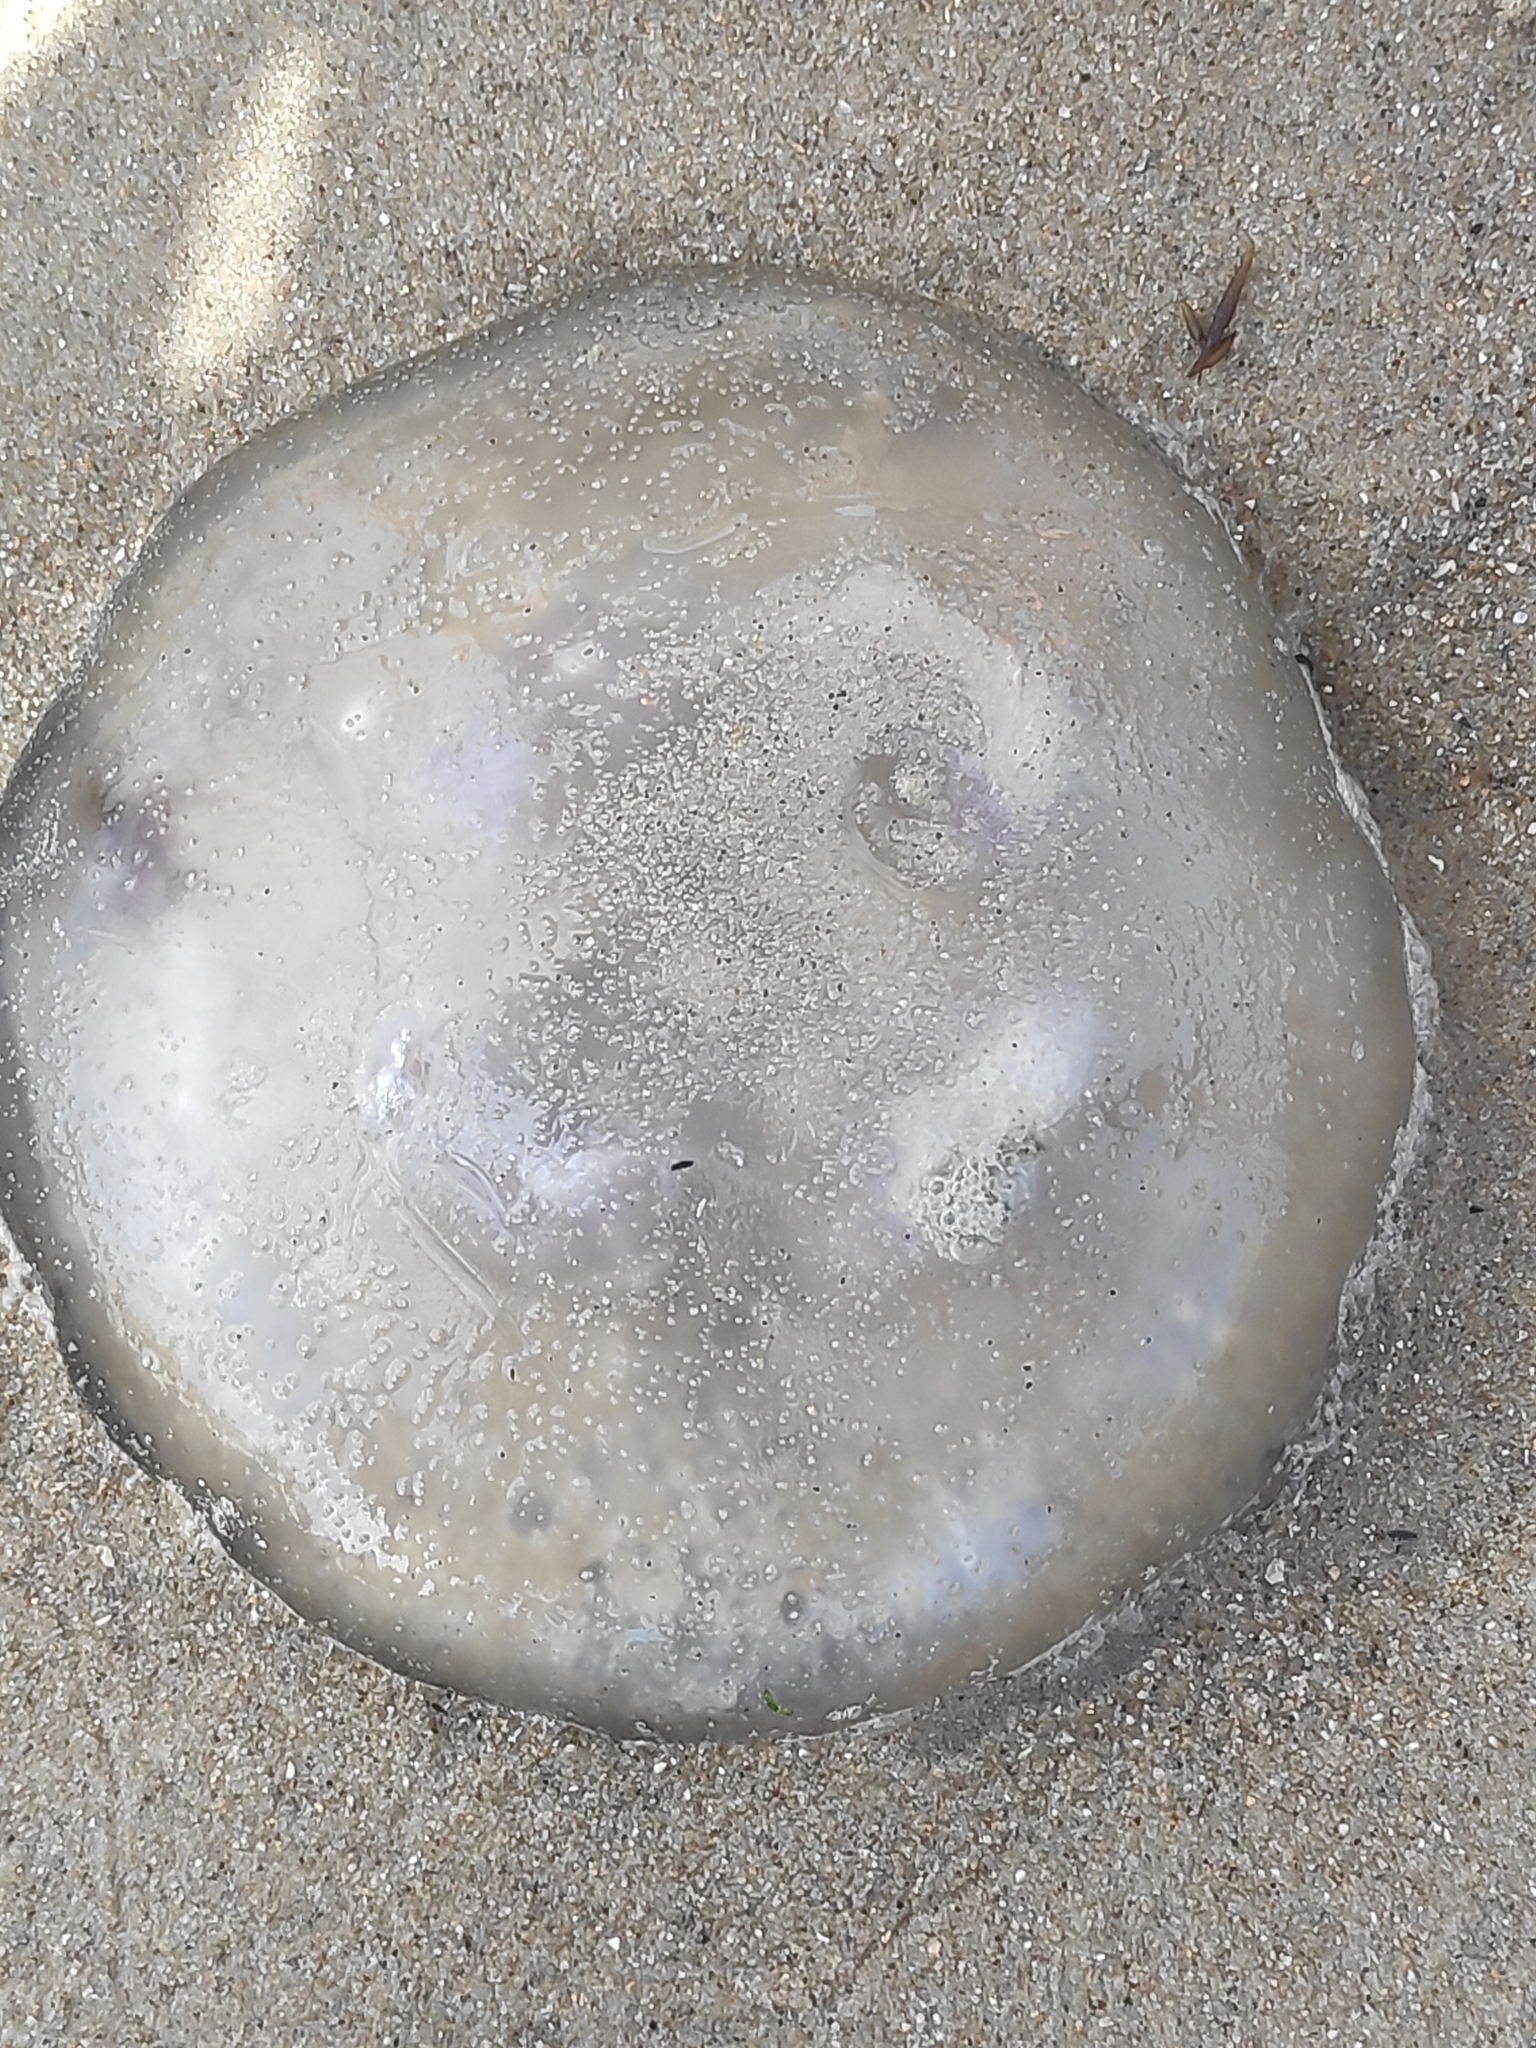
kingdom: Animalia
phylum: Cnidaria
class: Scyphozoa
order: Semaeostomeae
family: Ulmaridae
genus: Aurelia
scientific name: Aurelia aurita
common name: Moon jellyfish
